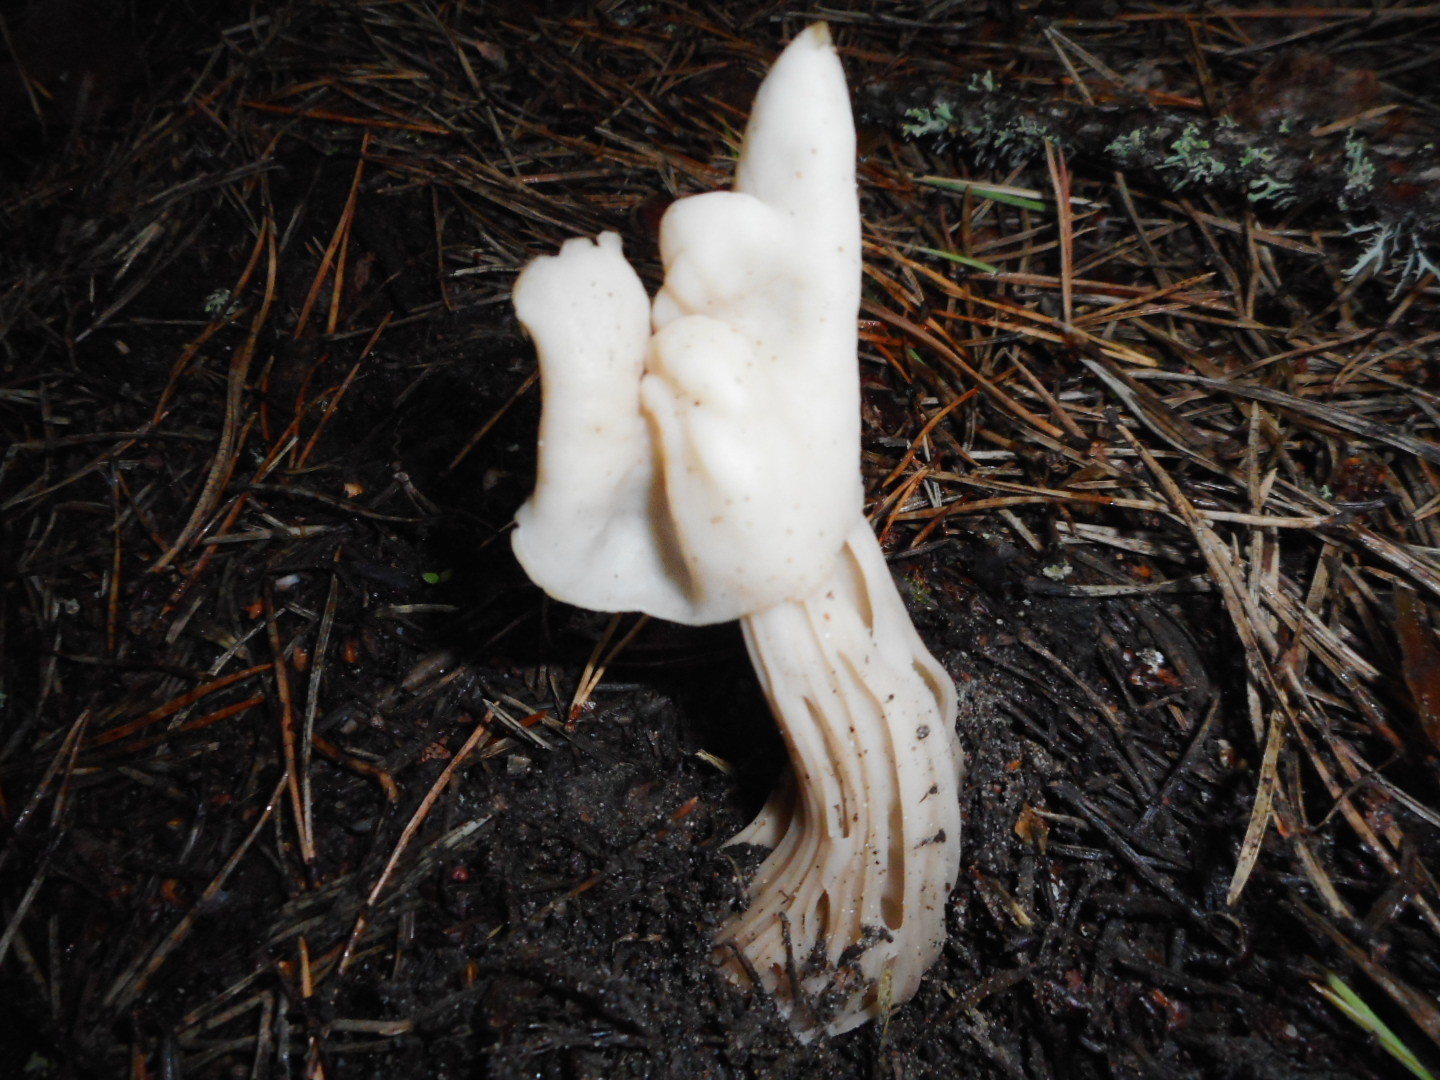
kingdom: Fungi
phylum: Ascomycota
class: Pezizomycetes
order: Pezizales
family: Helvellaceae
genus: Helvella
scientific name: Helvella crispa
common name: White saddle
